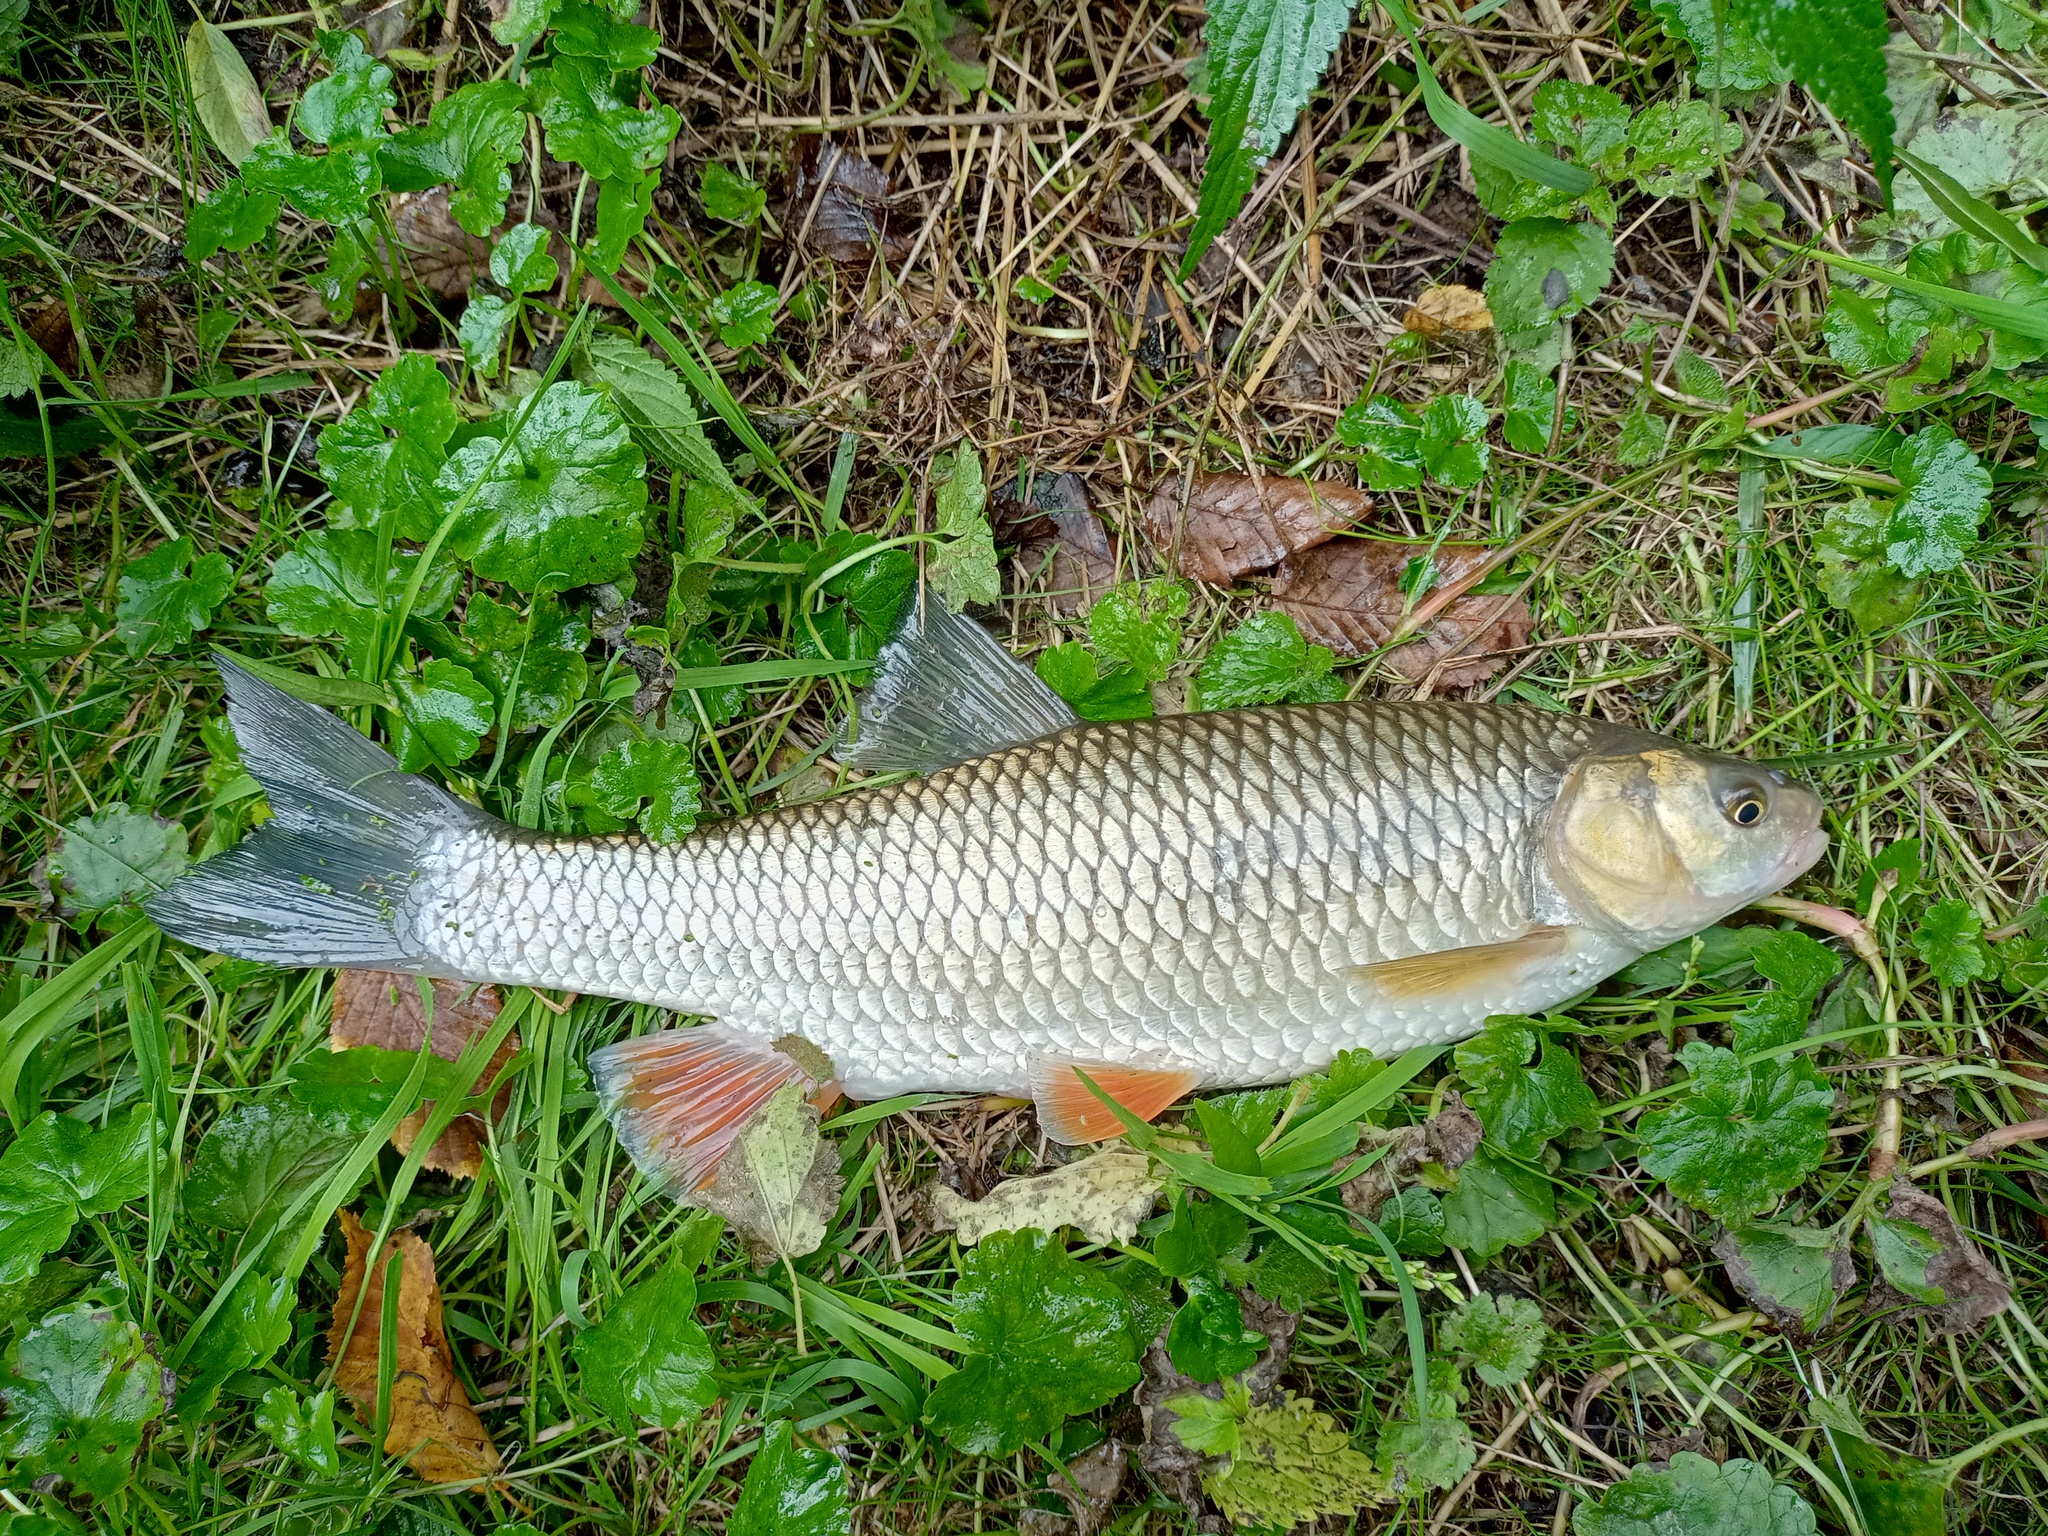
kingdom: Animalia
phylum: Chordata
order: Cypriniformes
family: Cyprinidae
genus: Squalius
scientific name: Squalius cephalus
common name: Chub
